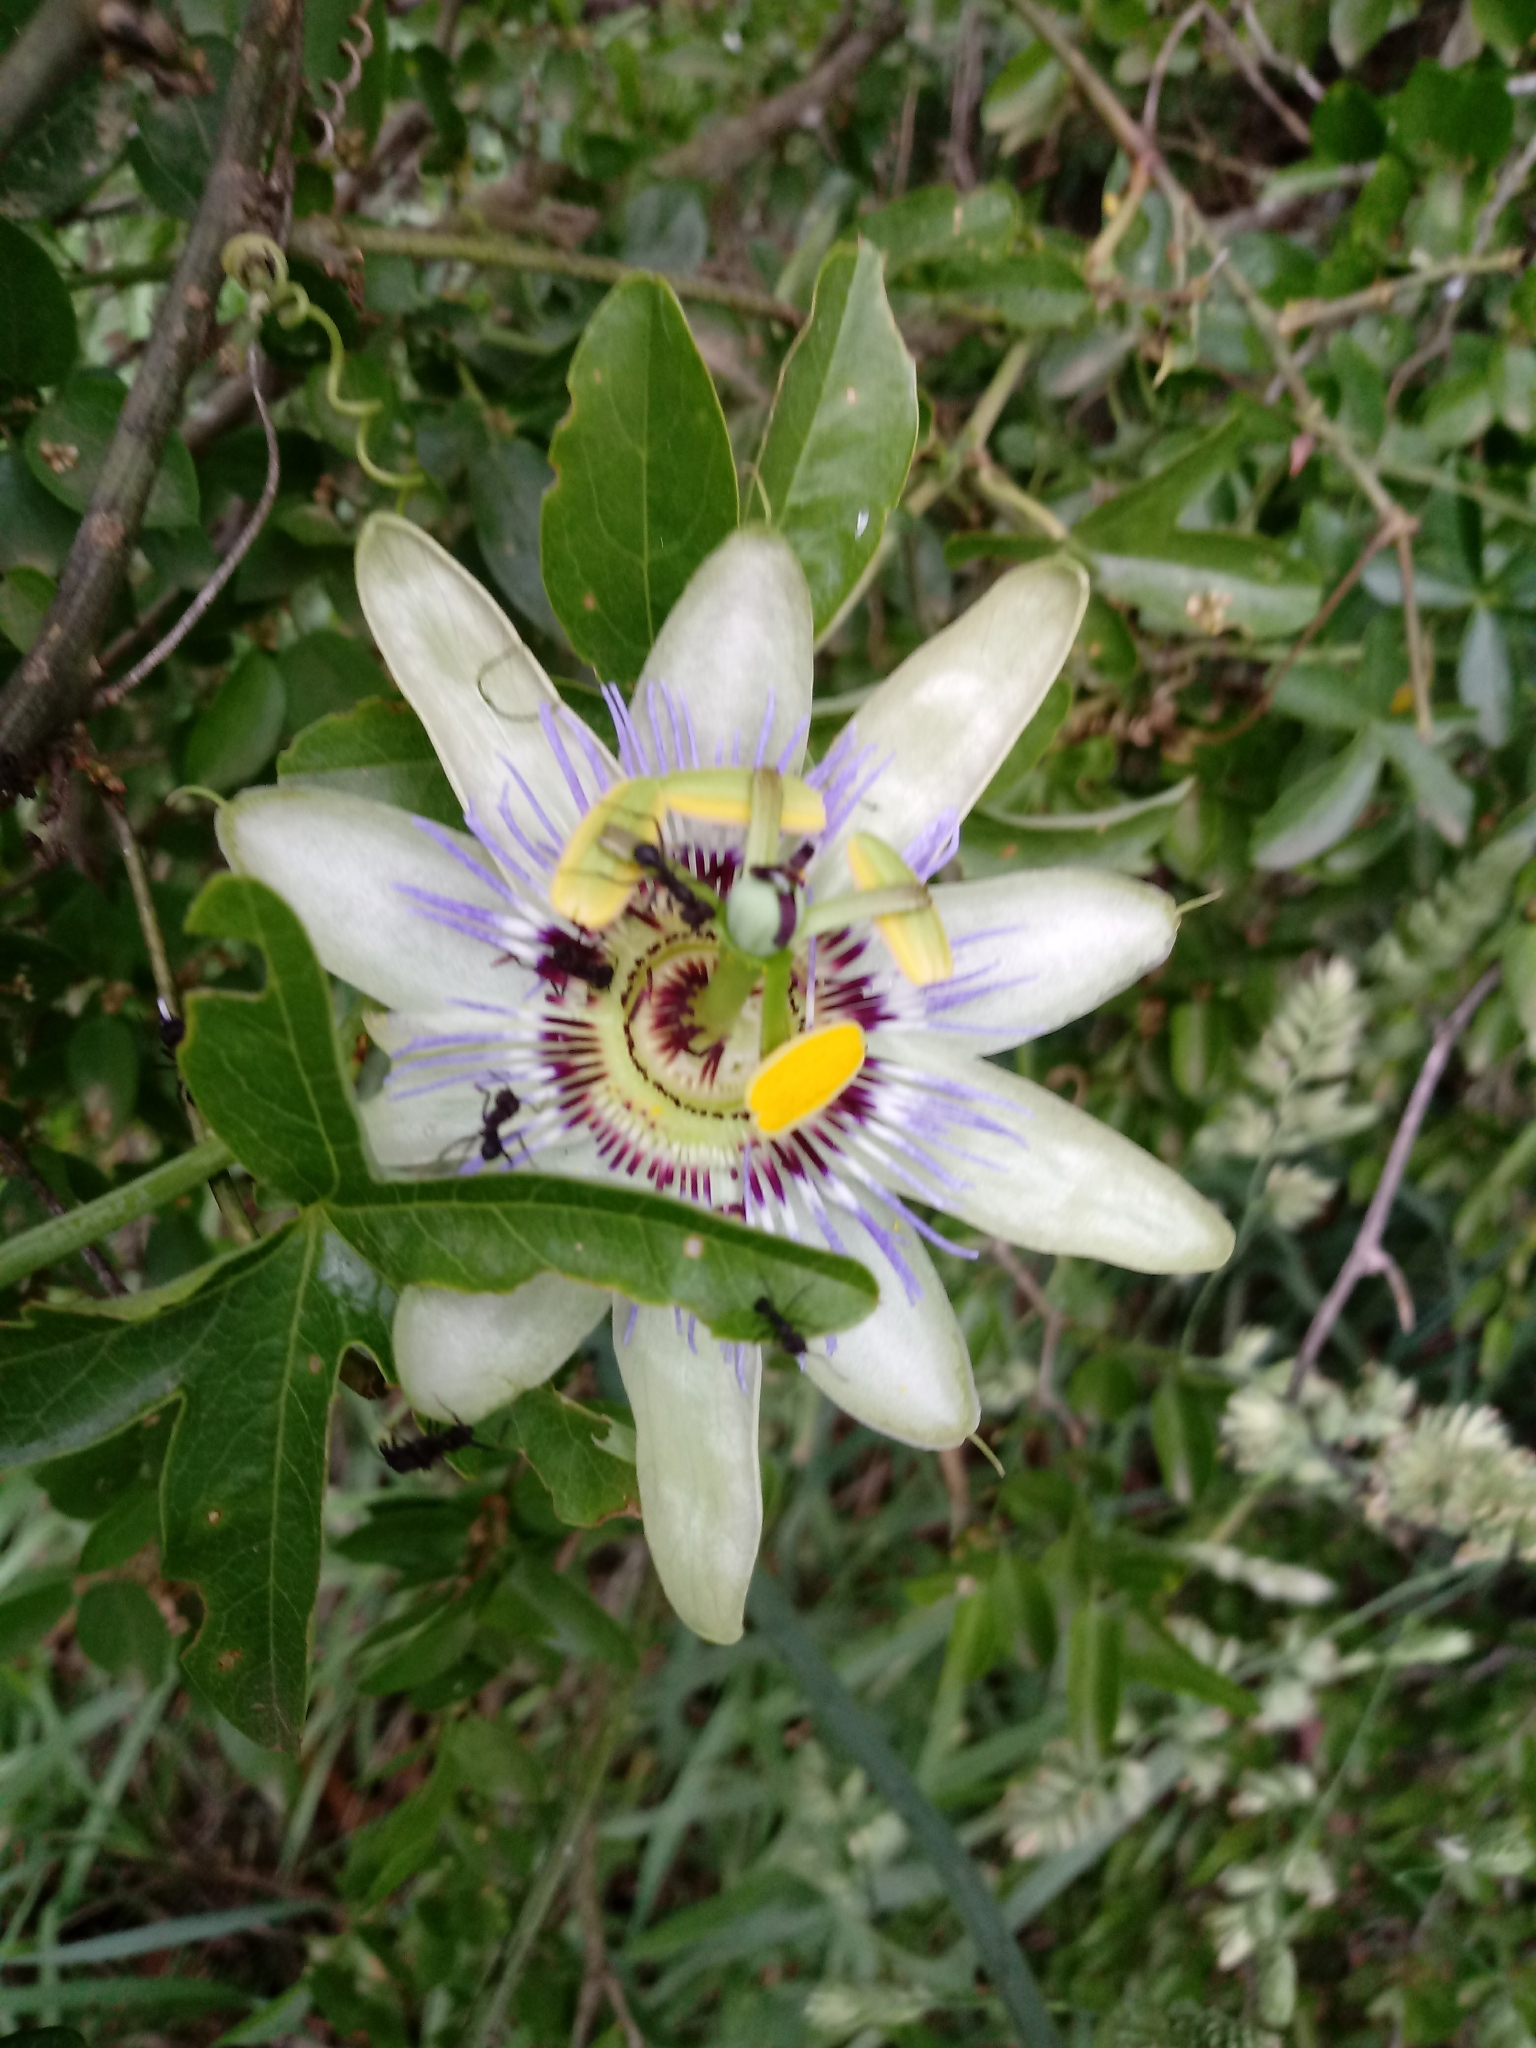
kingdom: Plantae
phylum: Tracheophyta
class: Magnoliopsida
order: Malpighiales
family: Passifloraceae
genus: Passiflora
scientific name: Passiflora caerulea
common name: Blue passionflower
